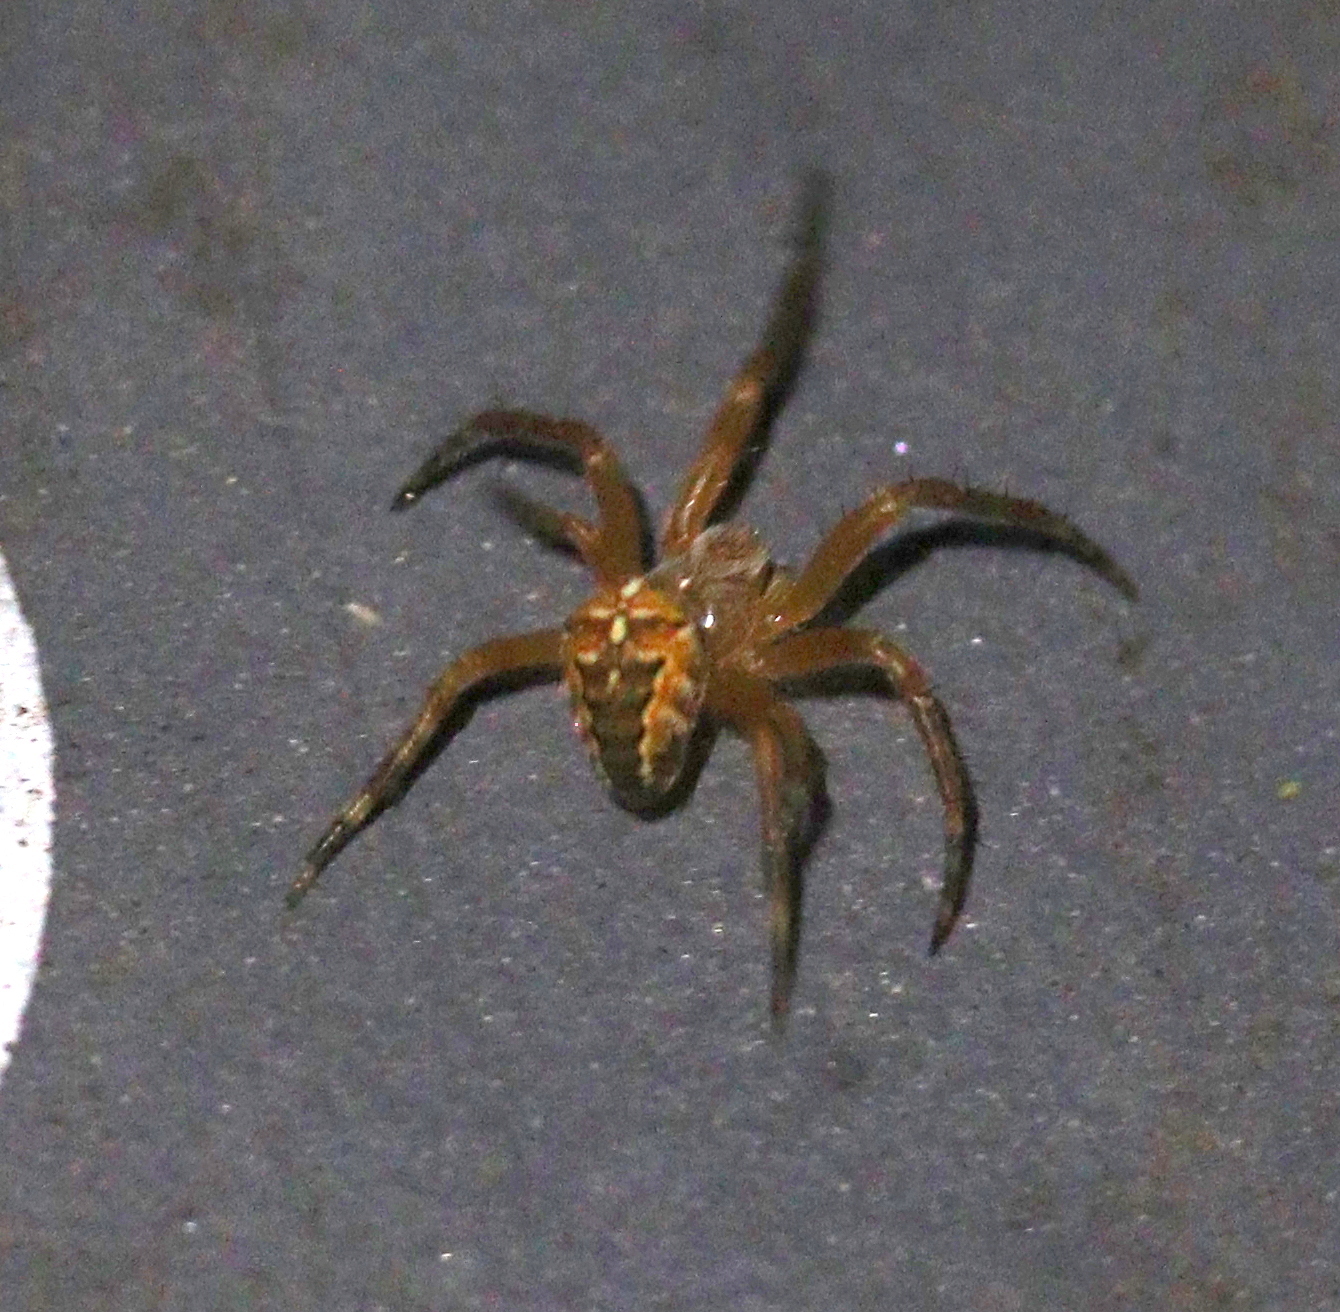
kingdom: Animalia
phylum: Arthropoda
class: Arachnida
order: Araneae
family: Araneidae
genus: Araneus
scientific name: Araneus diadematus
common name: Cross orbweaver
